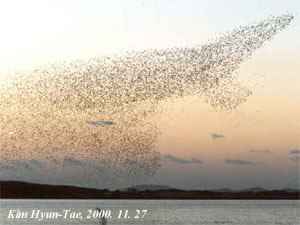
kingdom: Animalia
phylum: Chordata
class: Aves
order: Anseriformes
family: Anatidae
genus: Sibirionetta
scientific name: Sibirionetta formosa
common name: Baikal teal
